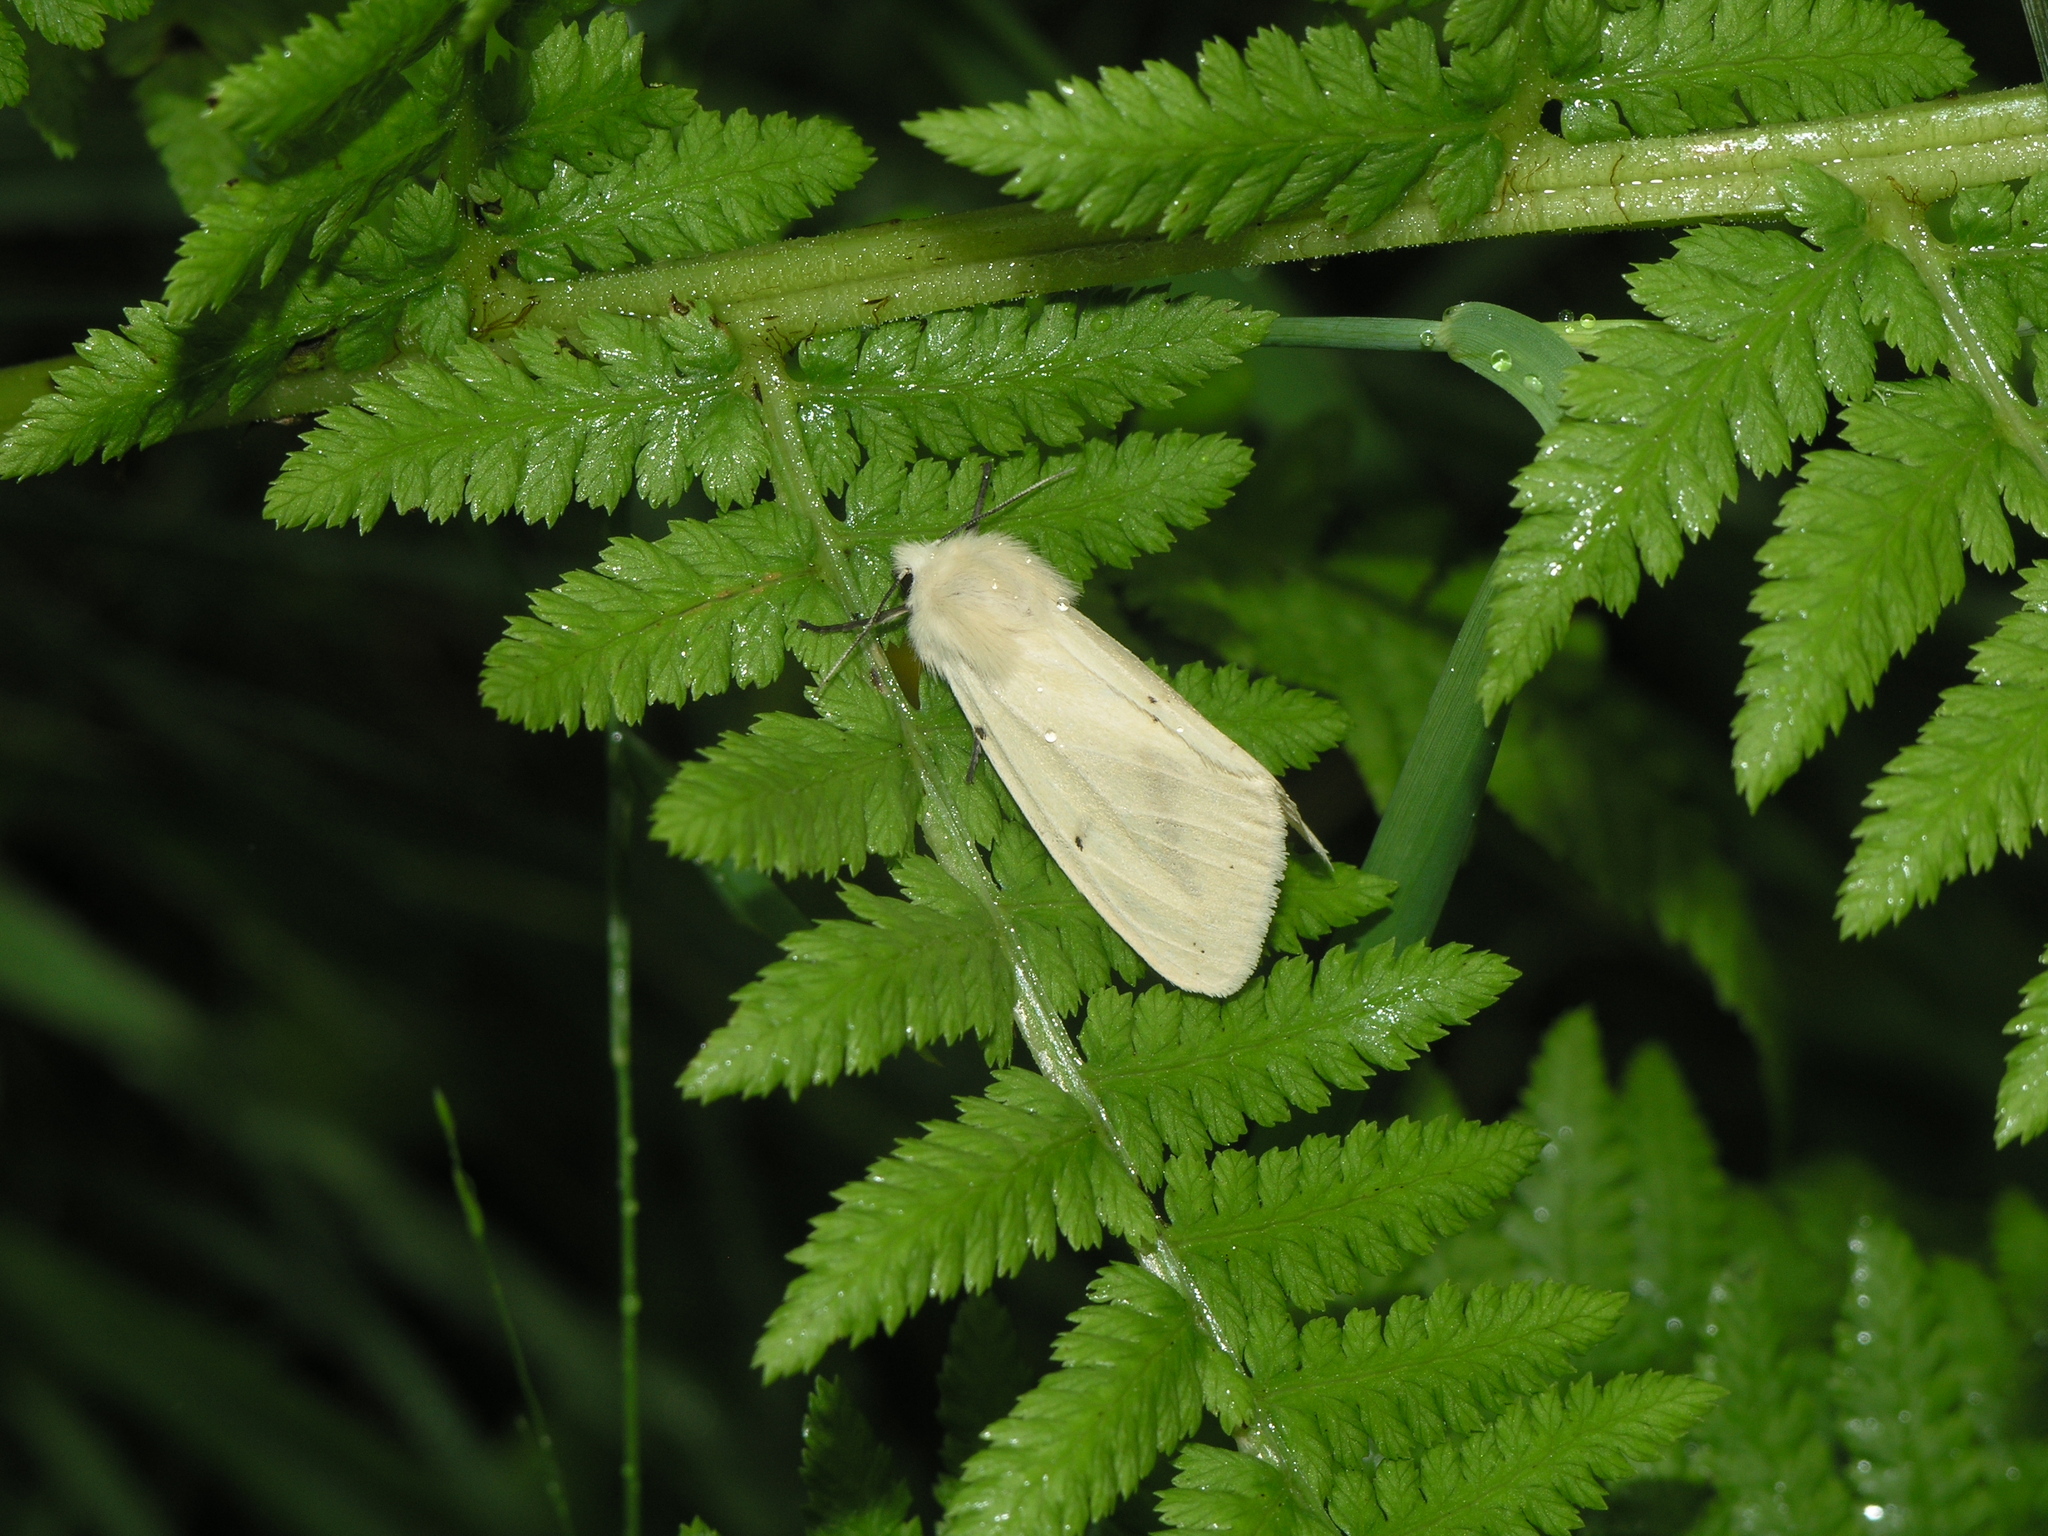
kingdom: Plantae
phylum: Tracheophyta
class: Polypodiopsida
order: Polypodiales
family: Athyriaceae
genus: Athyrium
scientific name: Athyrium filix-femina
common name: Lady fern
